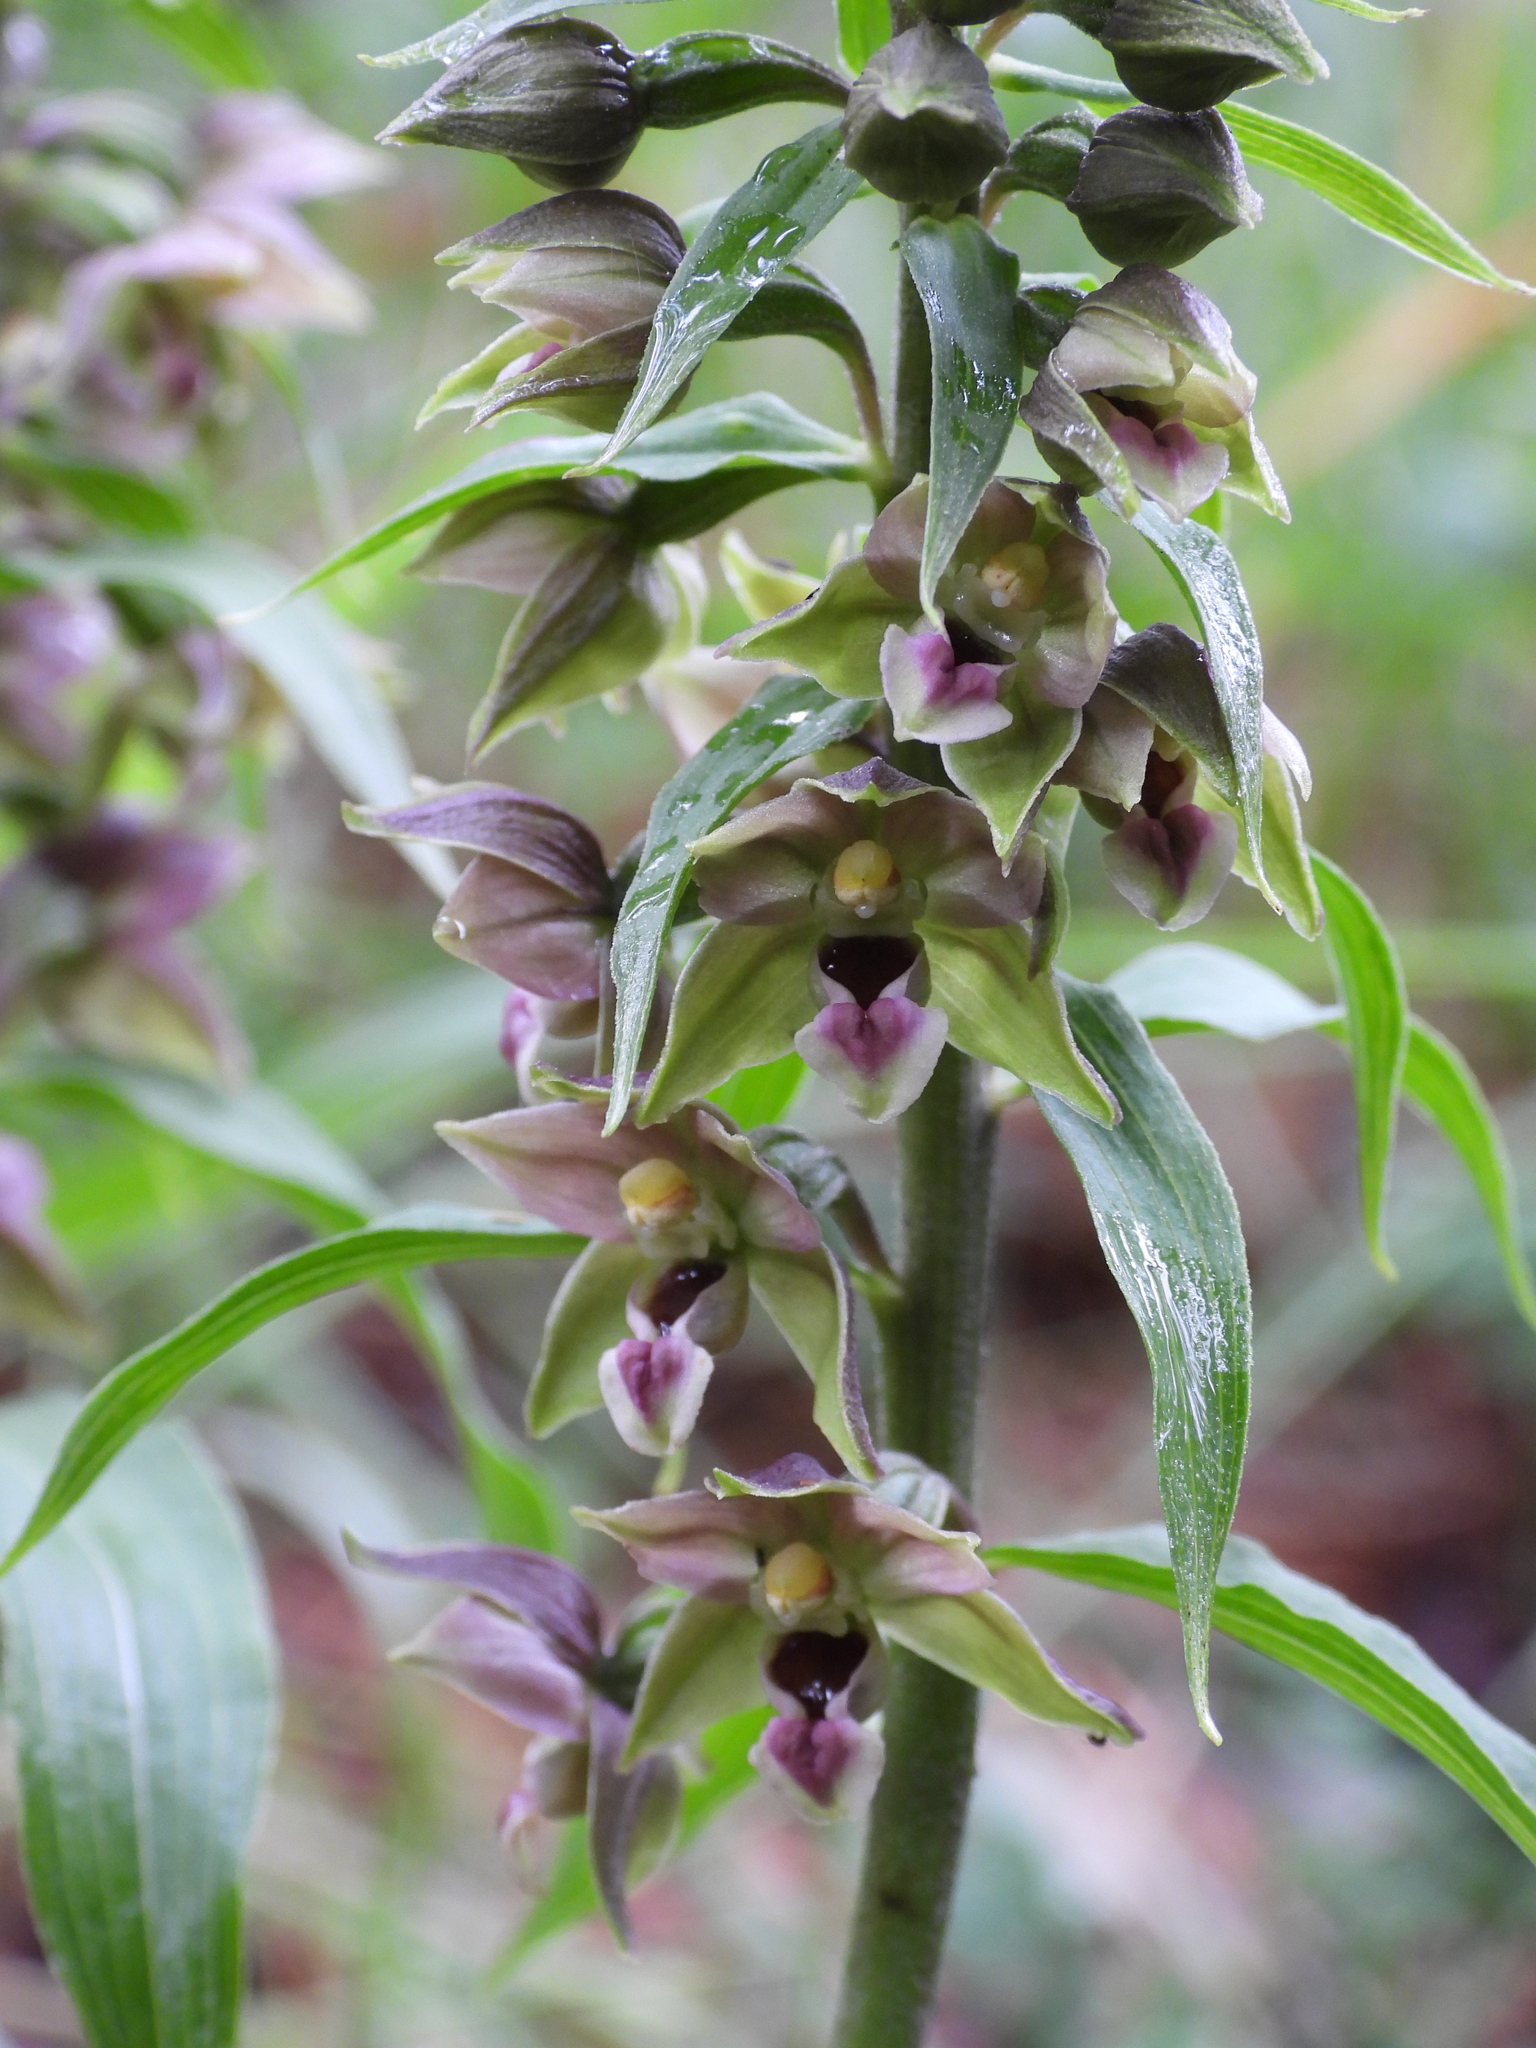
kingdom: Plantae
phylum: Tracheophyta
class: Liliopsida
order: Asparagales
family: Orchidaceae
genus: Epipactis
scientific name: Epipactis helleborine
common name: Broad-leaved helleborine
